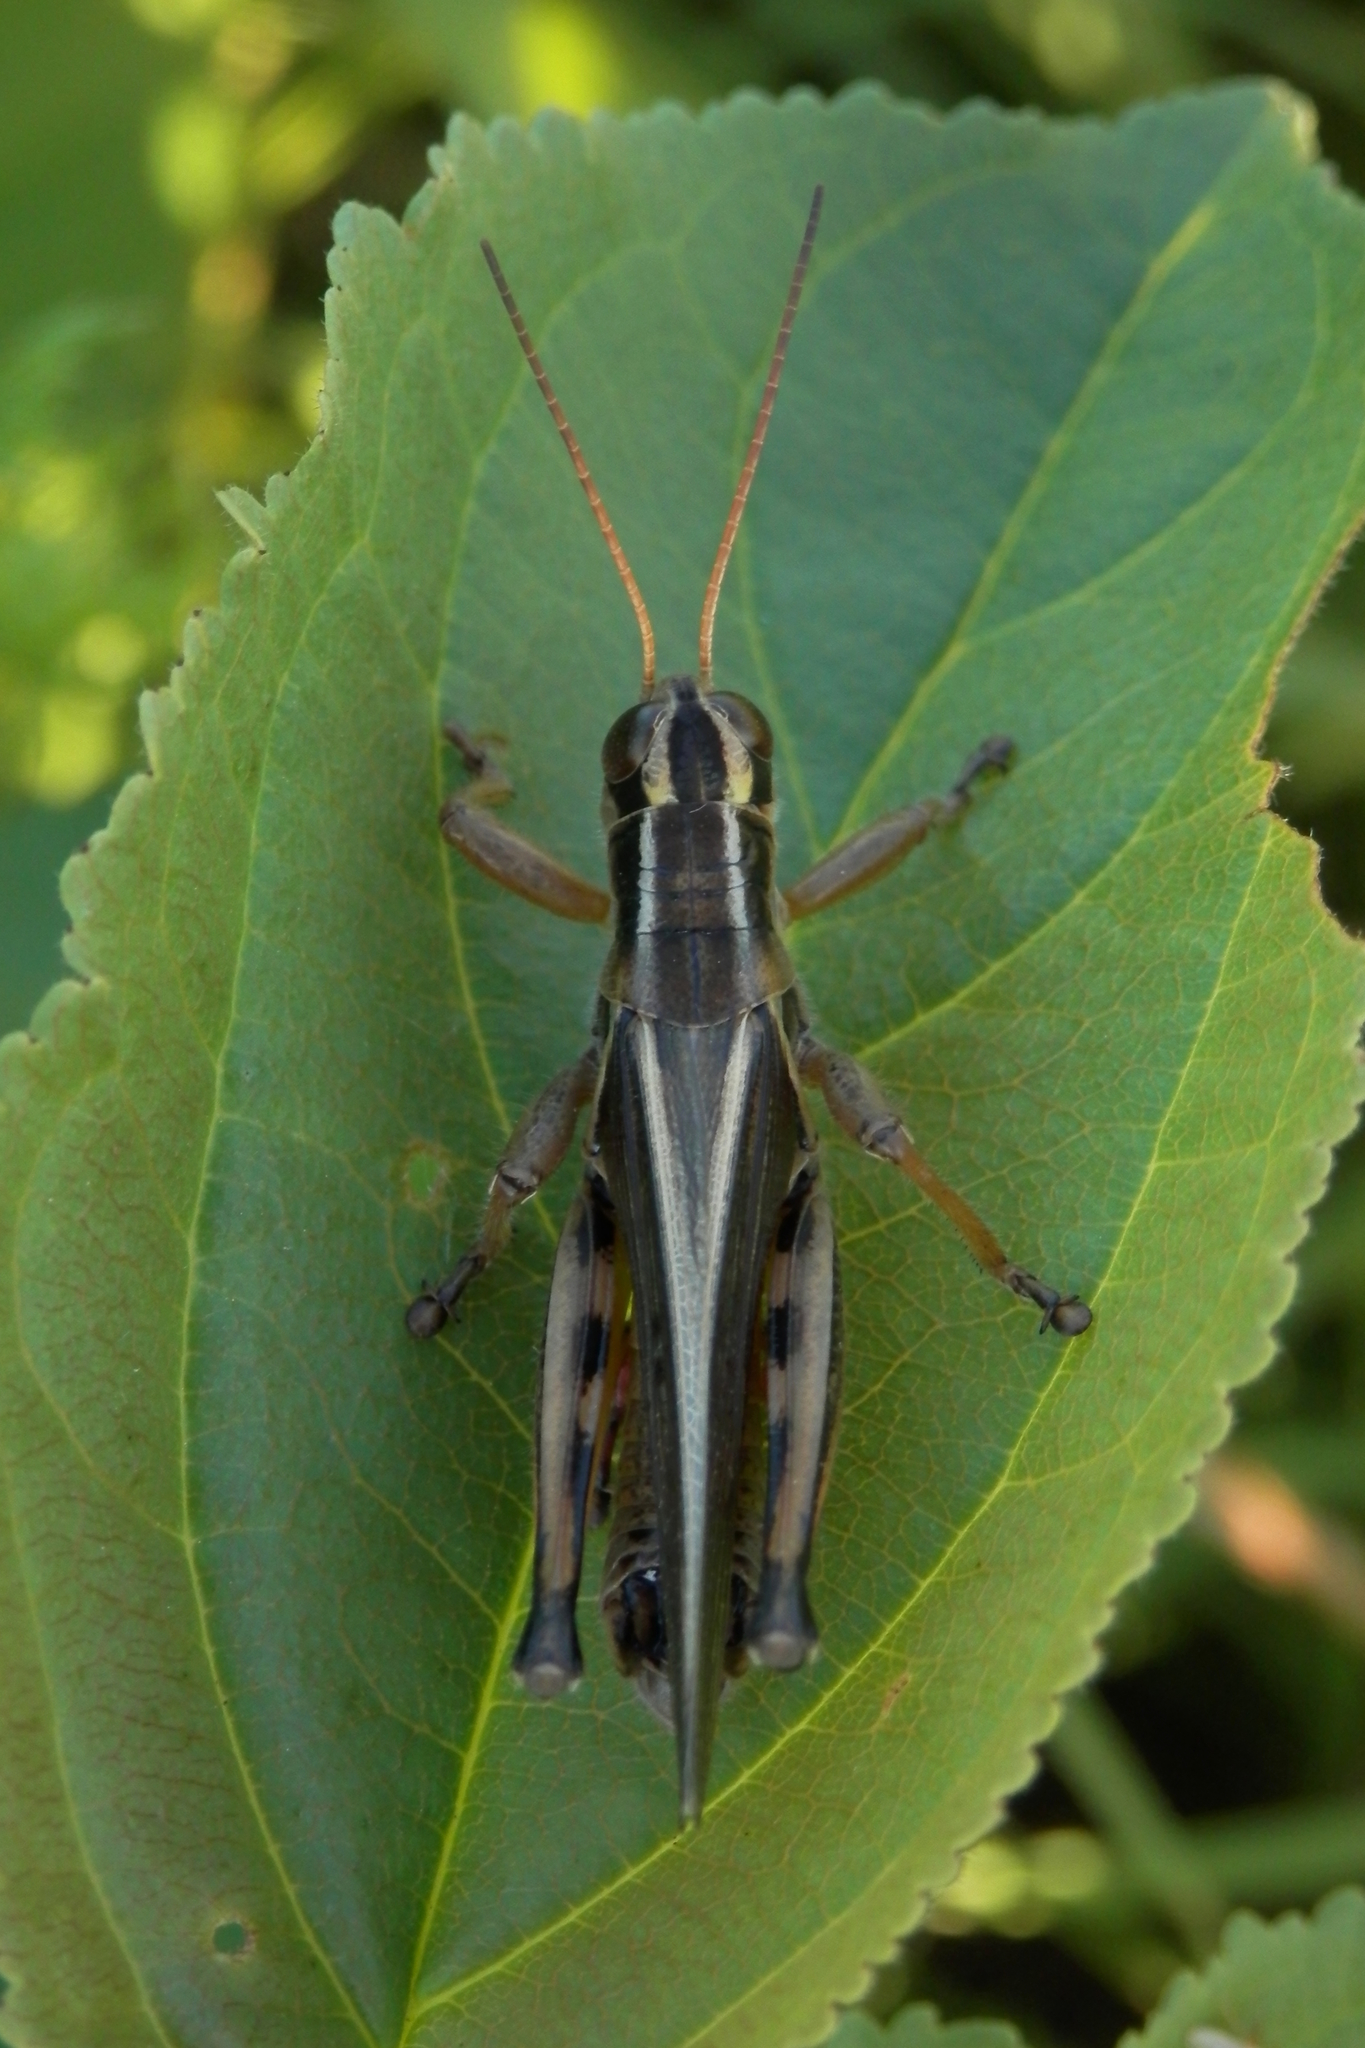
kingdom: Animalia
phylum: Arthropoda
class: Insecta
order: Orthoptera
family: Acrididae
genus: Melanoplus
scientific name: Melanoplus bivittatus
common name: Two-striped grasshopper
